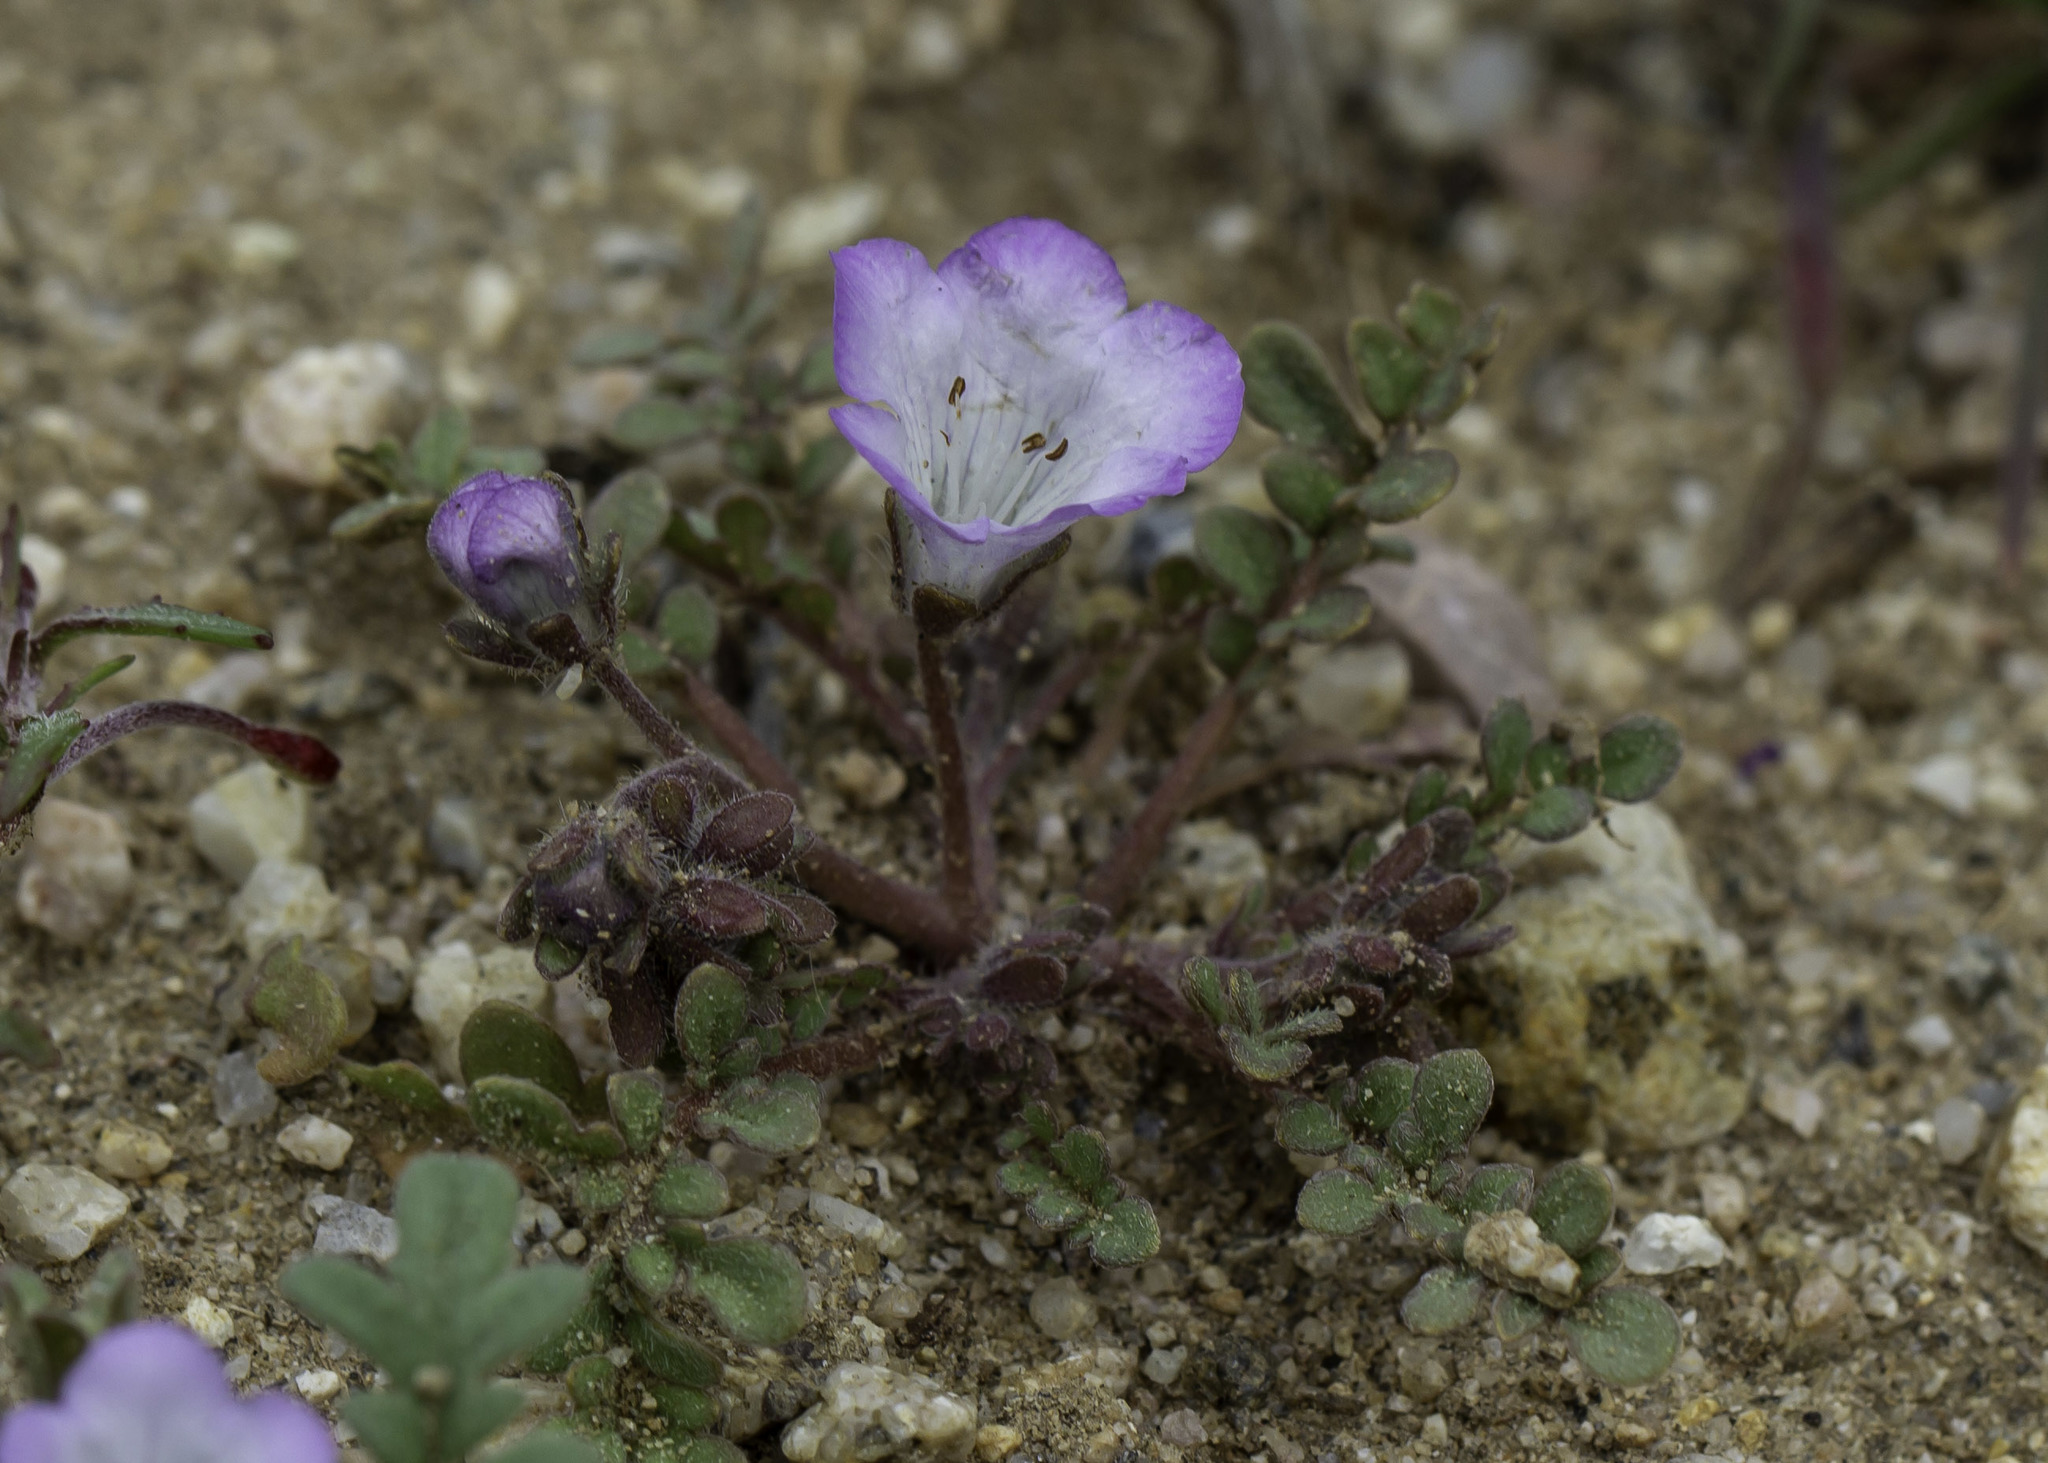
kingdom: Plantae
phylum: Tracheophyta
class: Magnoliopsida
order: Boraginales
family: Hydrophyllaceae
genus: Phacelia
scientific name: Phacelia douglasii
